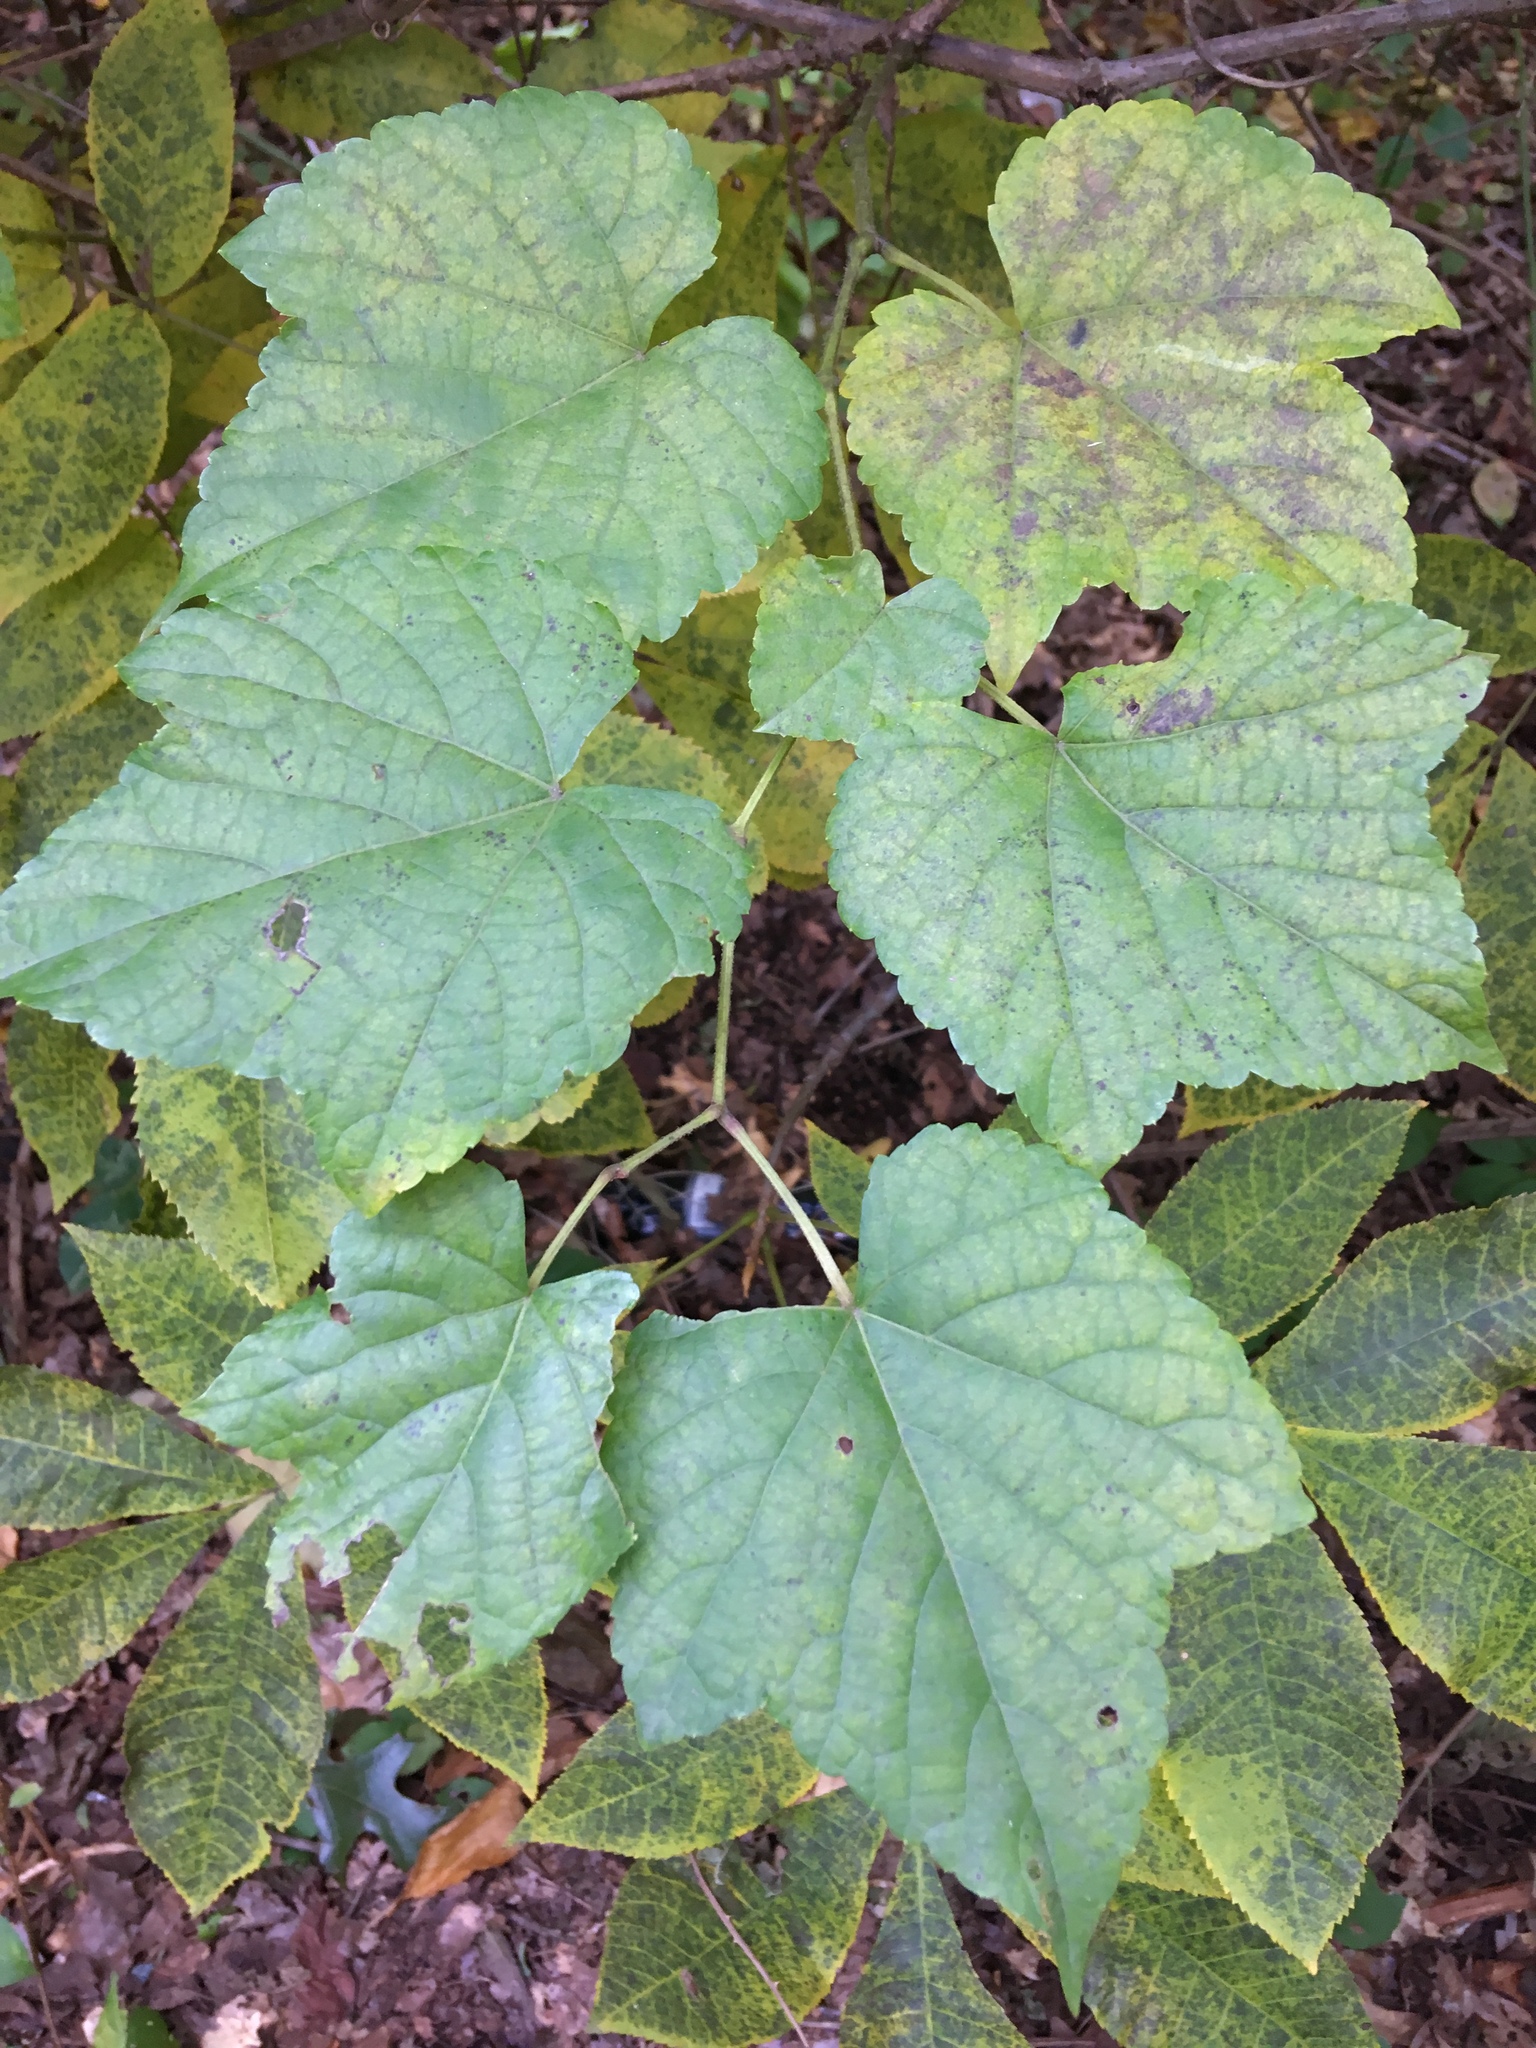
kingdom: Plantae
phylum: Tracheophyta
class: Magnoliopsida
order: Vitales
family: Vitaceae
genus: Ampelopsis
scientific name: Ampelopsis glandulosa
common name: Amur peppervine
